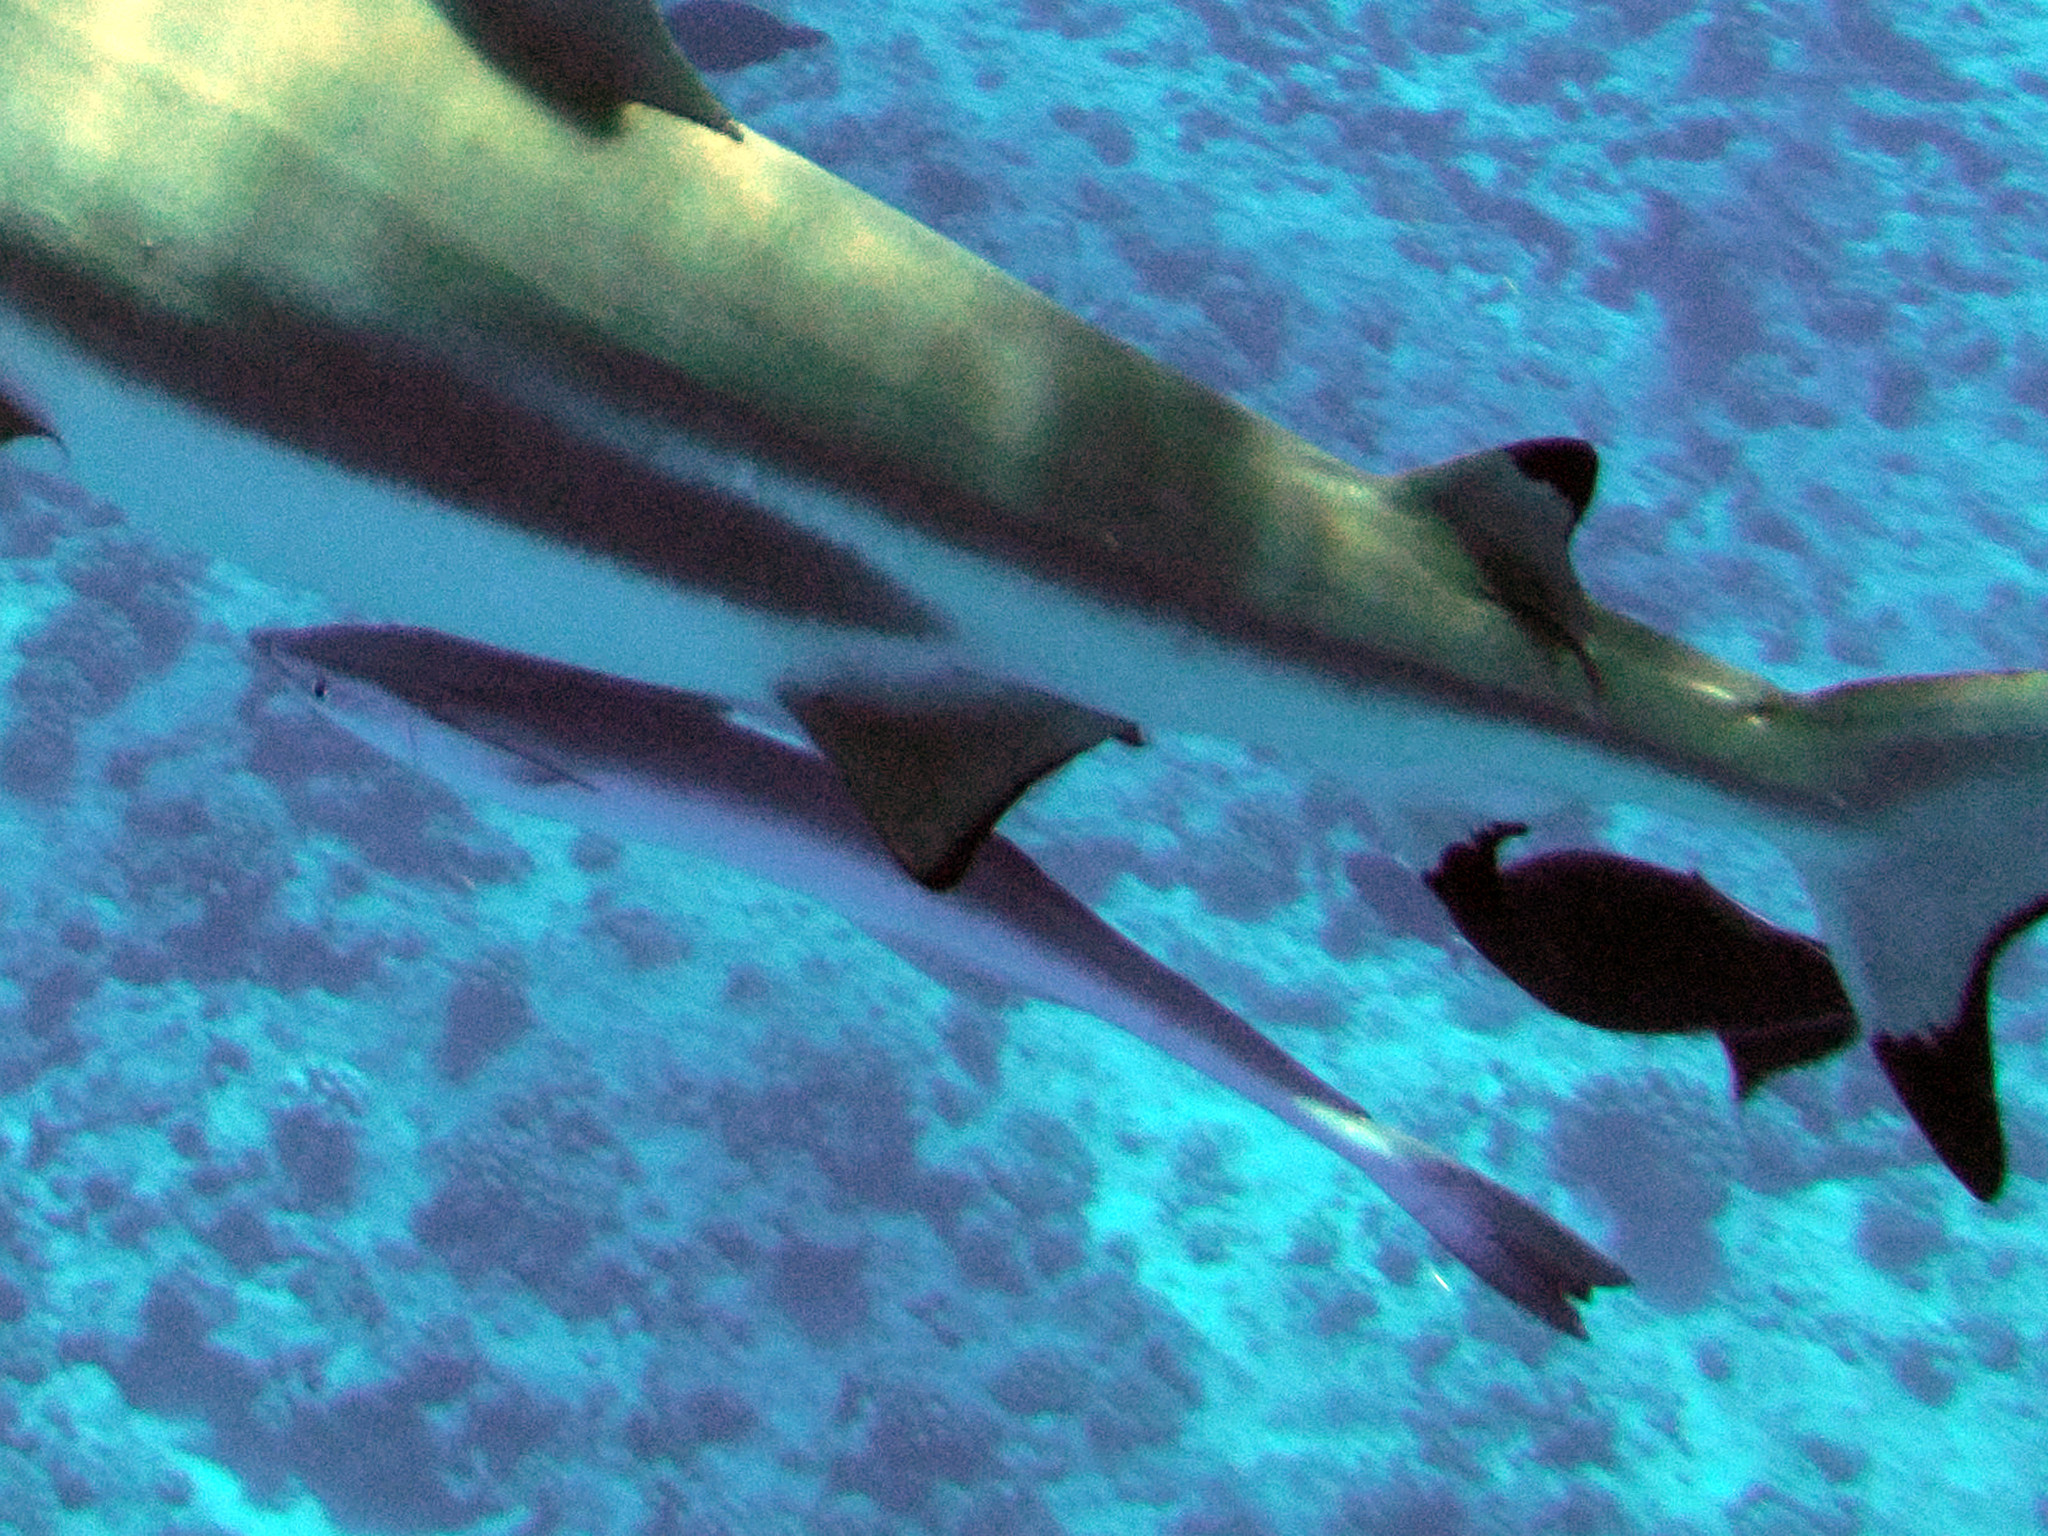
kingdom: Animalia
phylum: Chordata
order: Perciformes
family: Echeneidae
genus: Echeneis
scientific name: Echeneis naucrates
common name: Sharksucker
